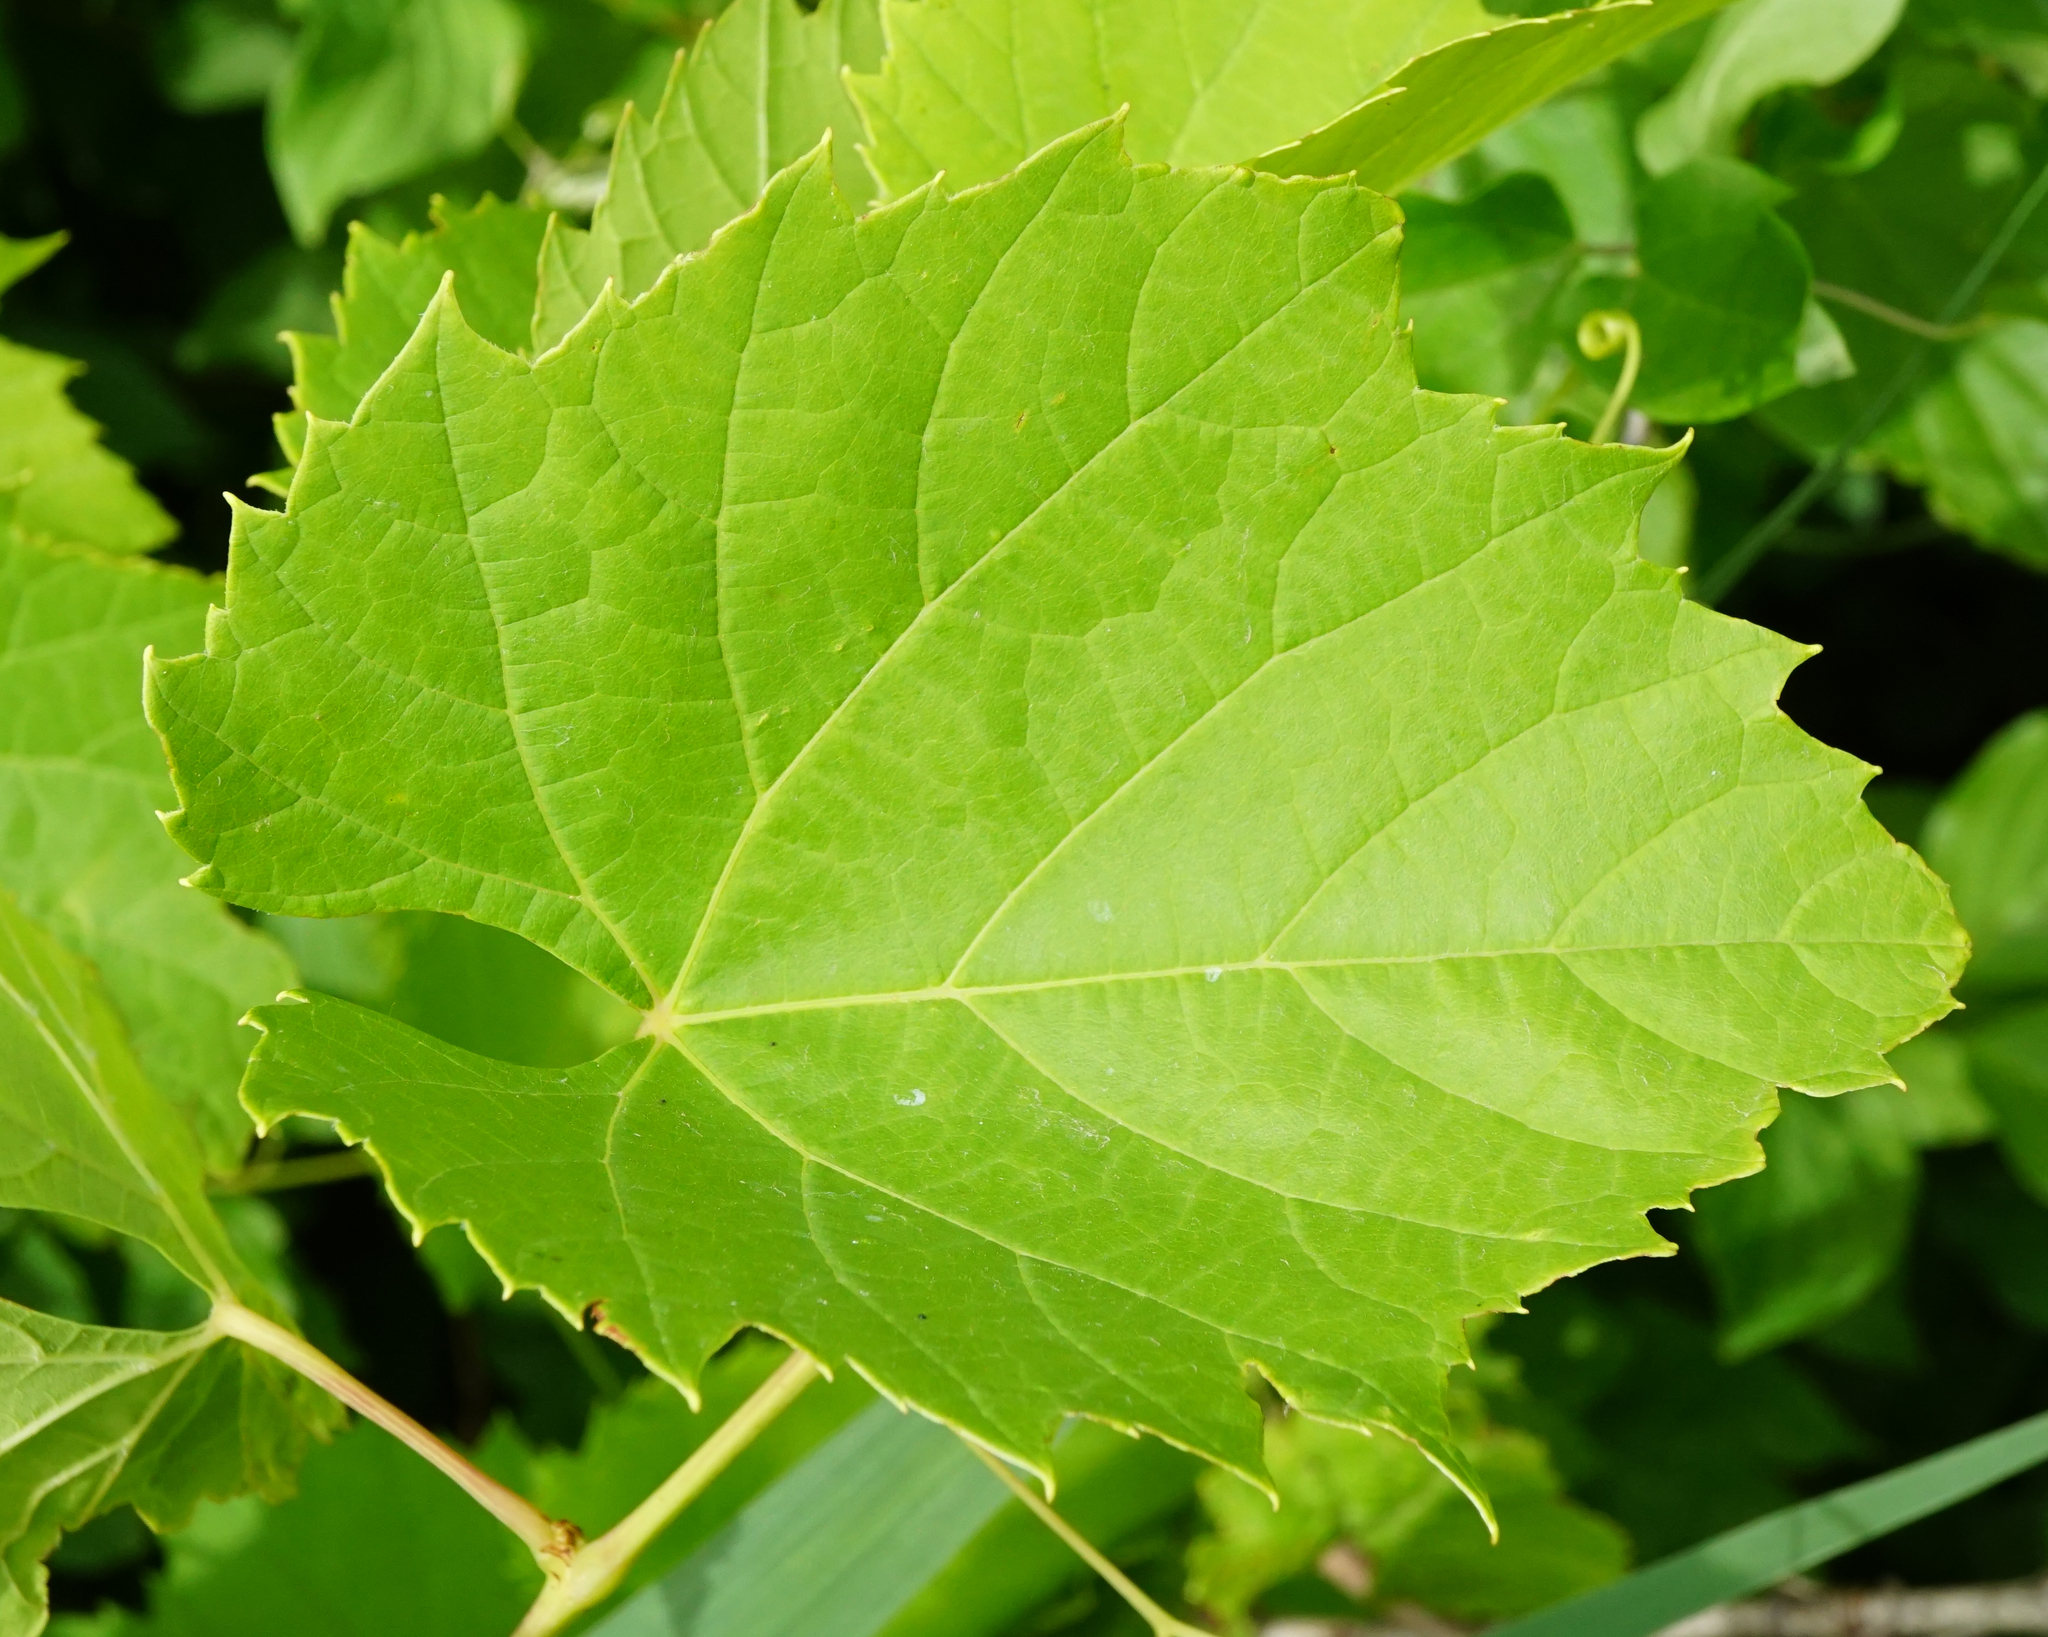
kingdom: Plantae
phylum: Tracheophyta
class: Magnoliopsida
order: Vitales
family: Vitaceae
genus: Vitis
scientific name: Vitis vinifera
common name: Grape-vine
